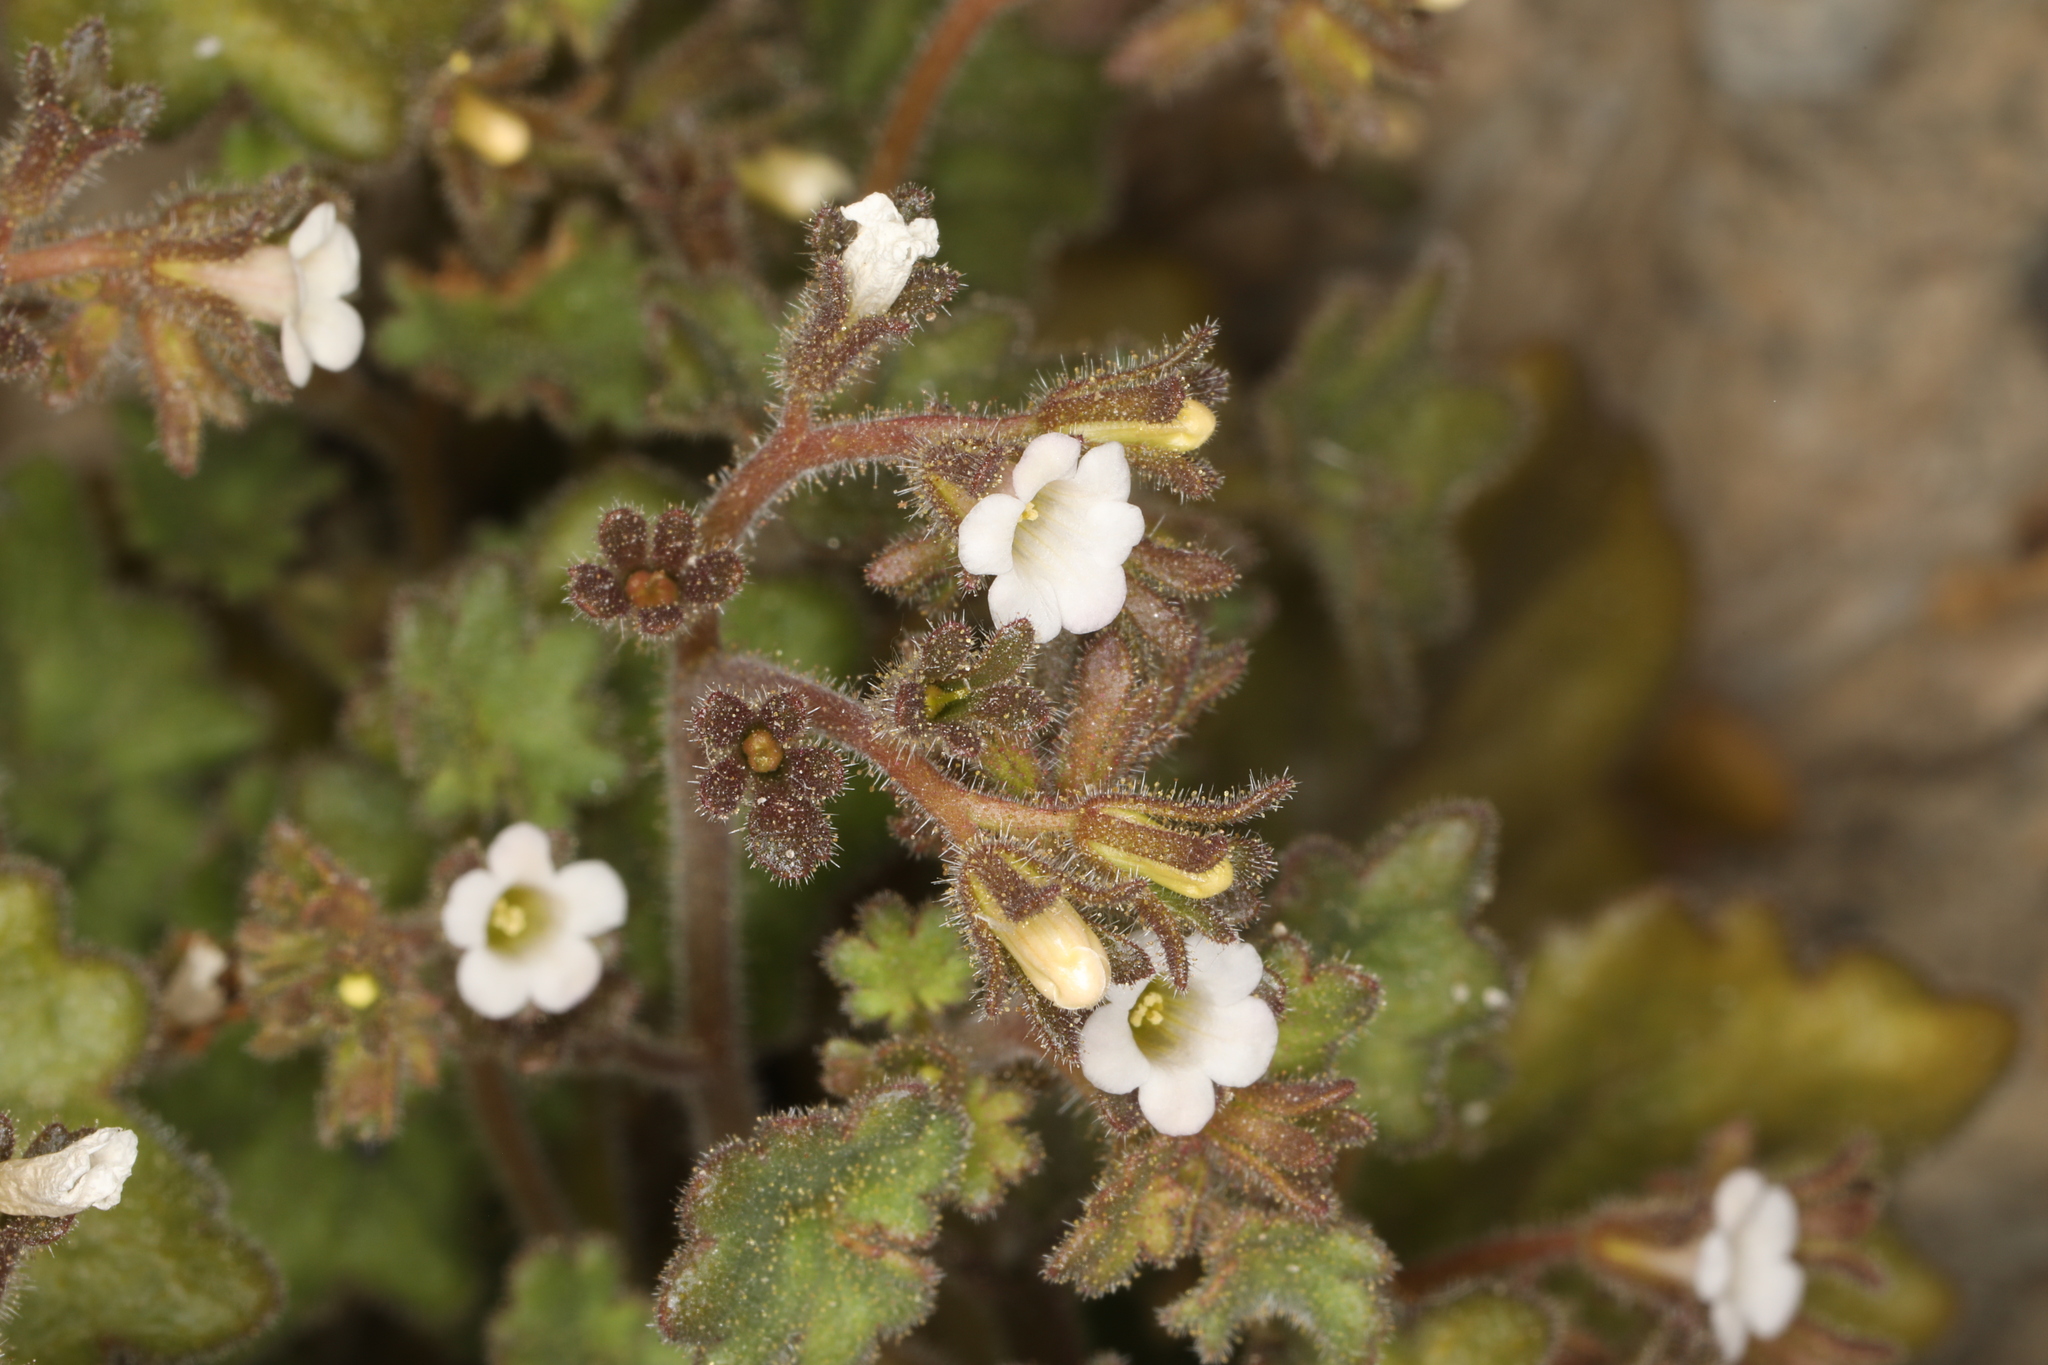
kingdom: Plantae
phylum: Tracheophyta
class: Magnoliopsida
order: Boraginales
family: Hydrophyllaceae
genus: Phacelia
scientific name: Phacelia rotundifolia
